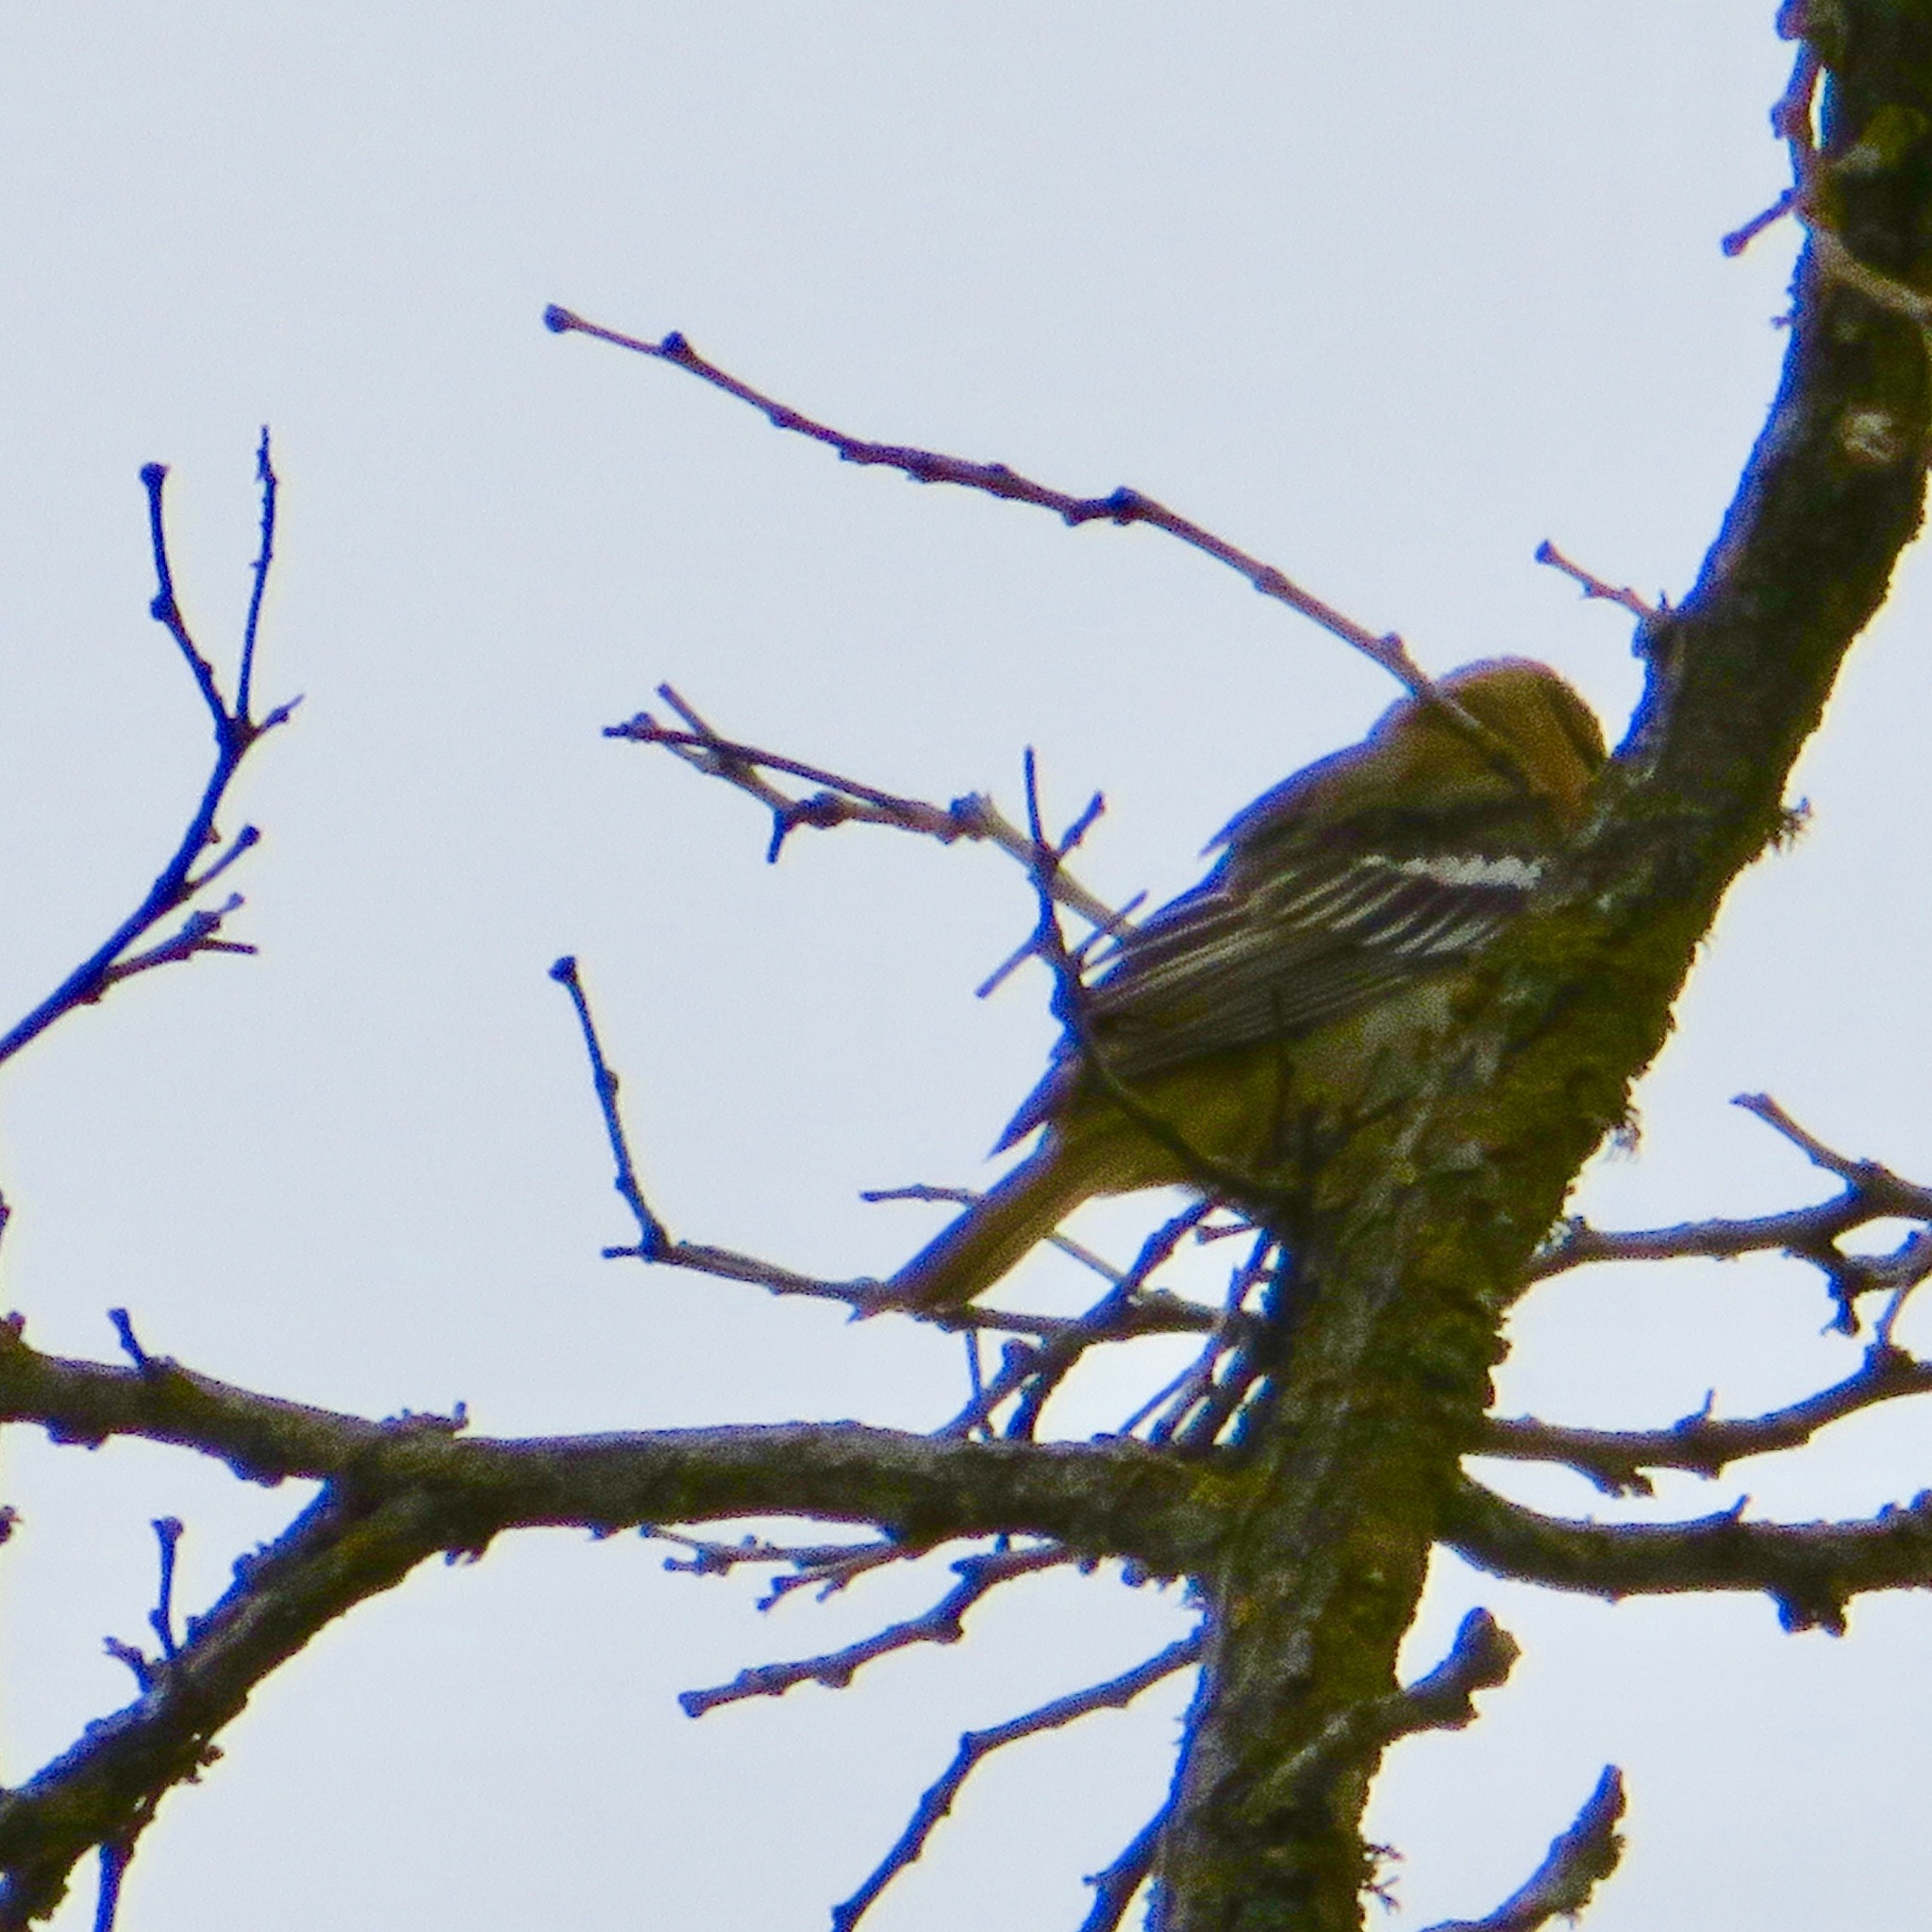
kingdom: Animalia
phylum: Chordata
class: Aves
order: Passeriformes
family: Icteridae
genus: Icterus
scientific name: Icterus bullockii
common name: Bullock's oriole
